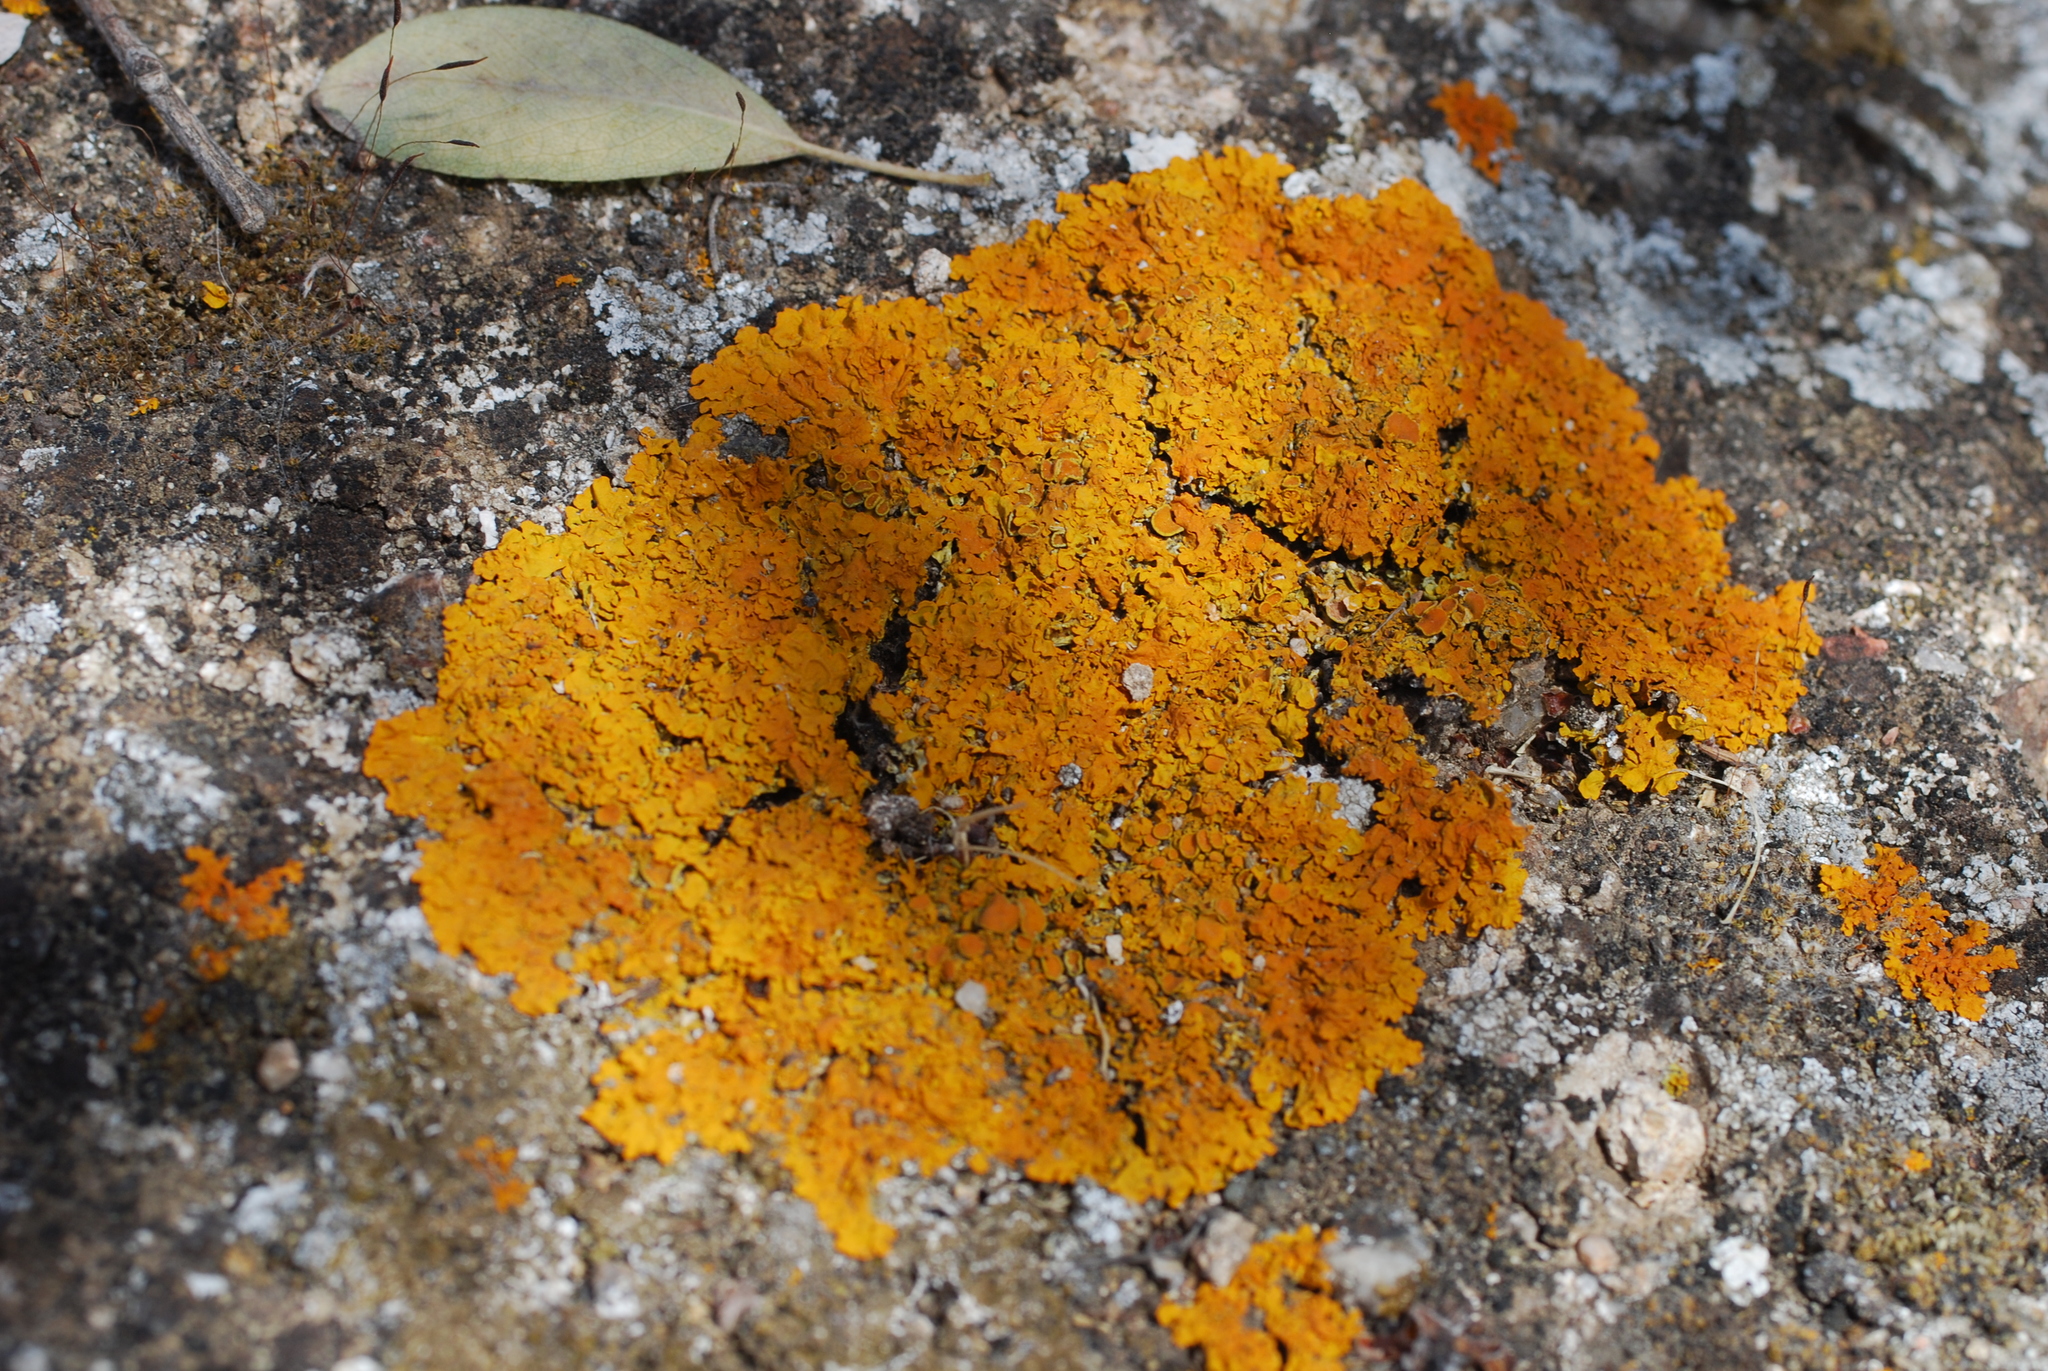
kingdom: Fungi
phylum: Ascomycota
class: Lecanoromycetes
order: Teloschistales
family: Teloschistaceae
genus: Xanthoria
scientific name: Xanthoria parietina
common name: Common orange lichen
